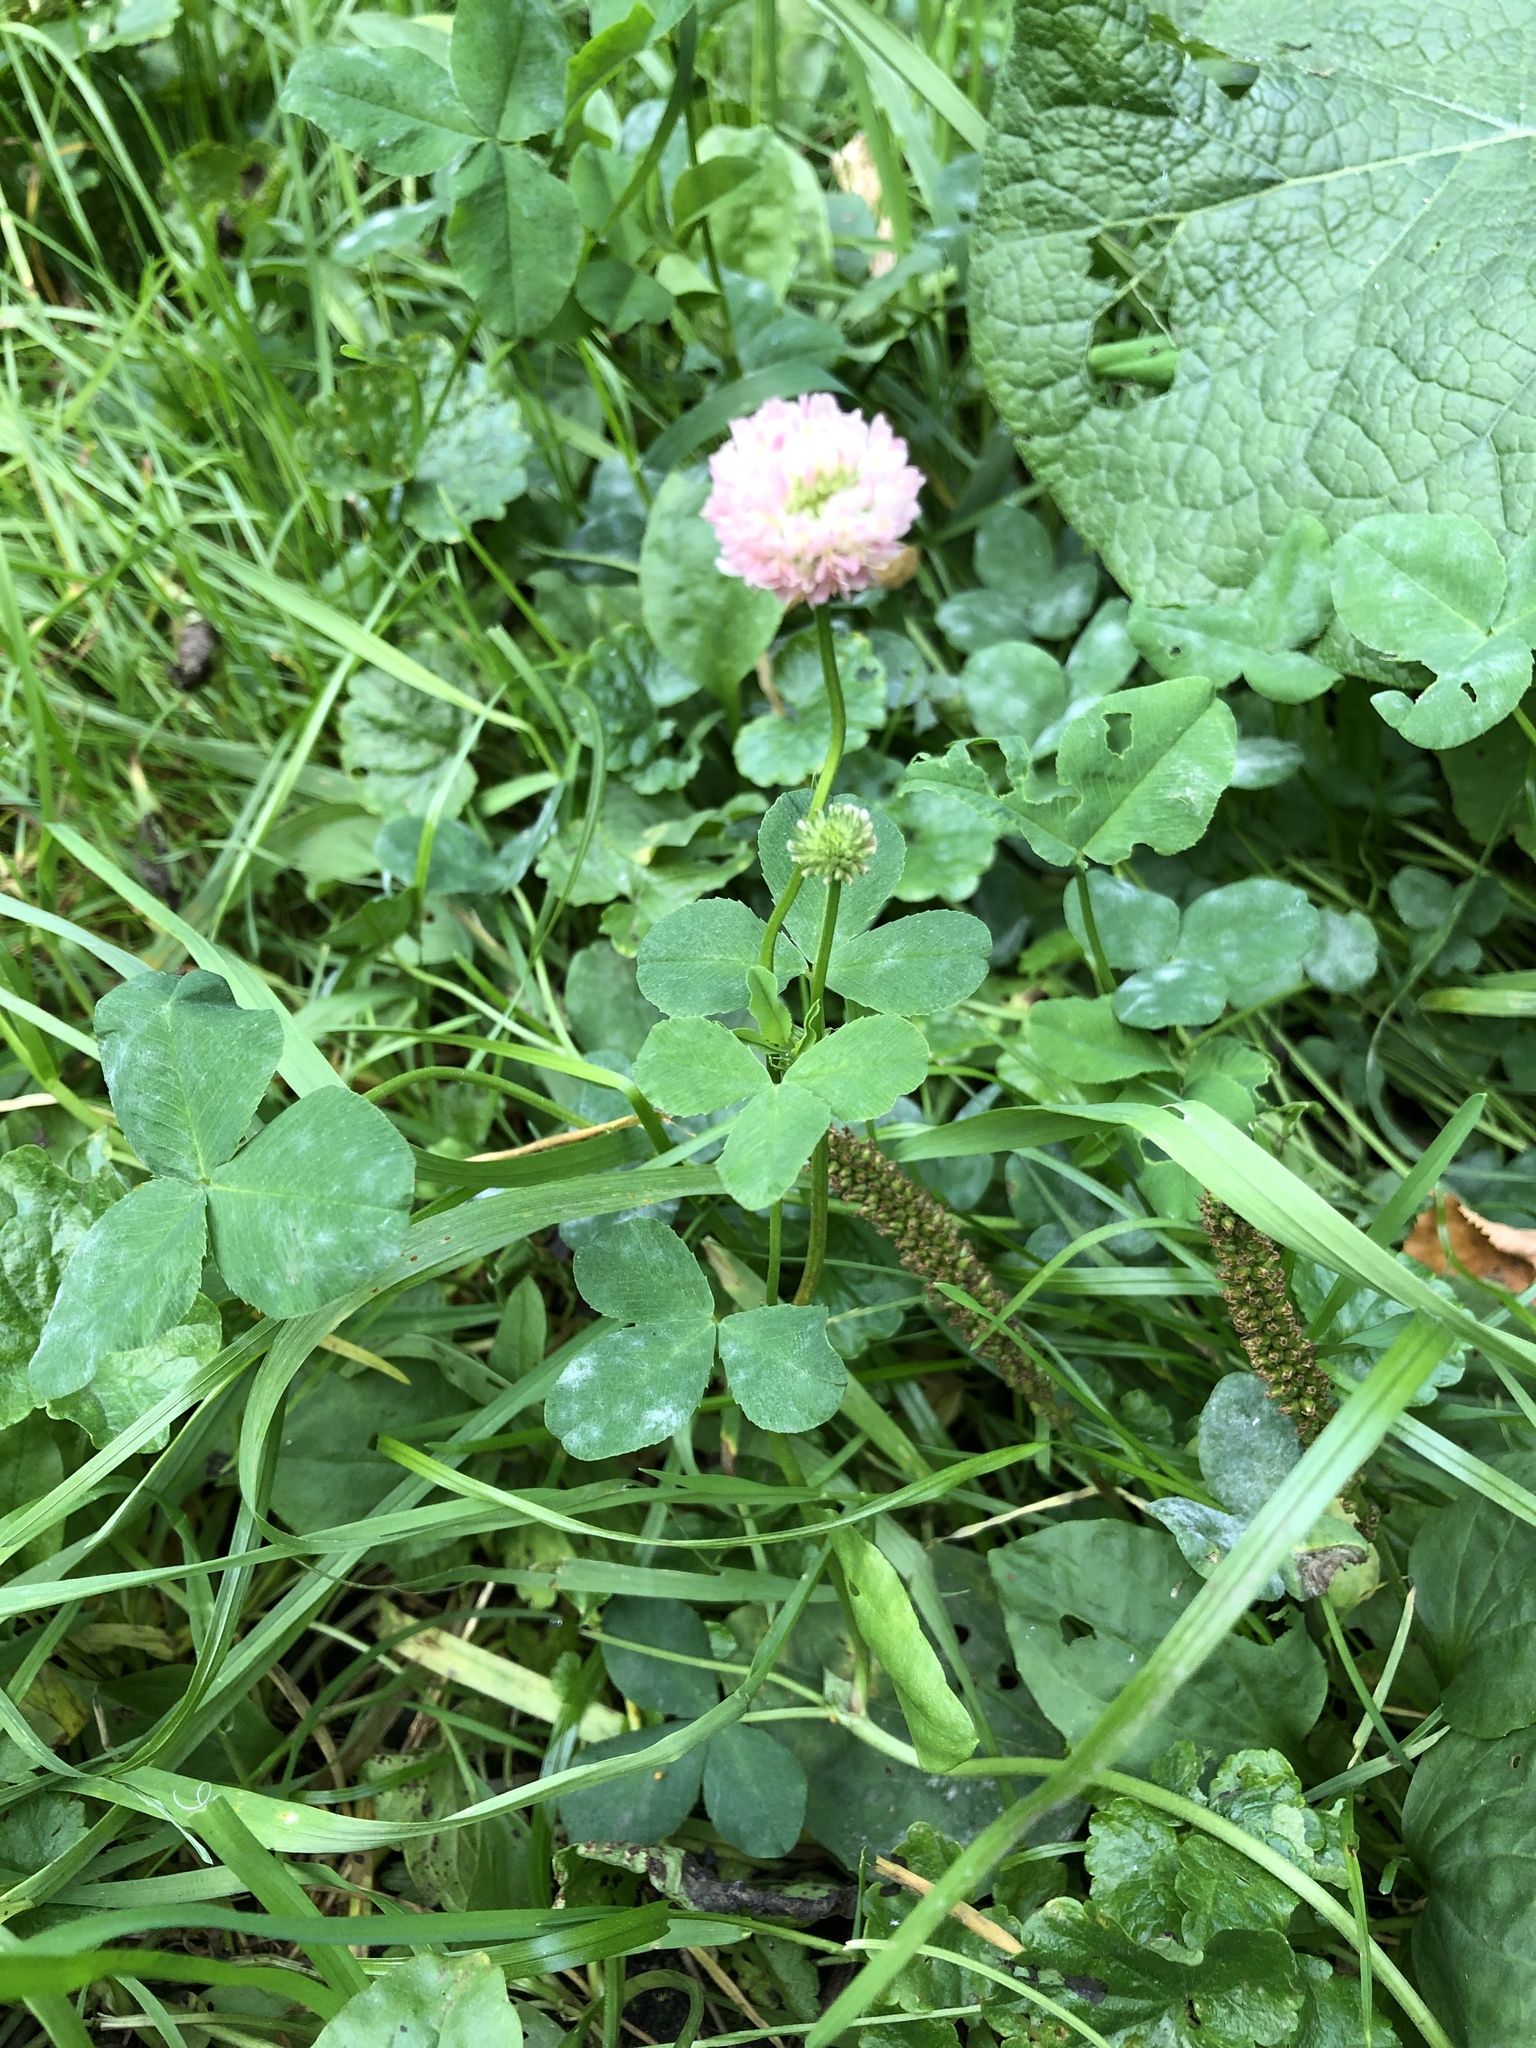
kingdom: Plantae
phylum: Tracheophyta
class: Magnoliopsida
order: Fabales
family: Fabaceae
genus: Trifolium
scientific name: Trifolium hybridum
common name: Alsike clover
